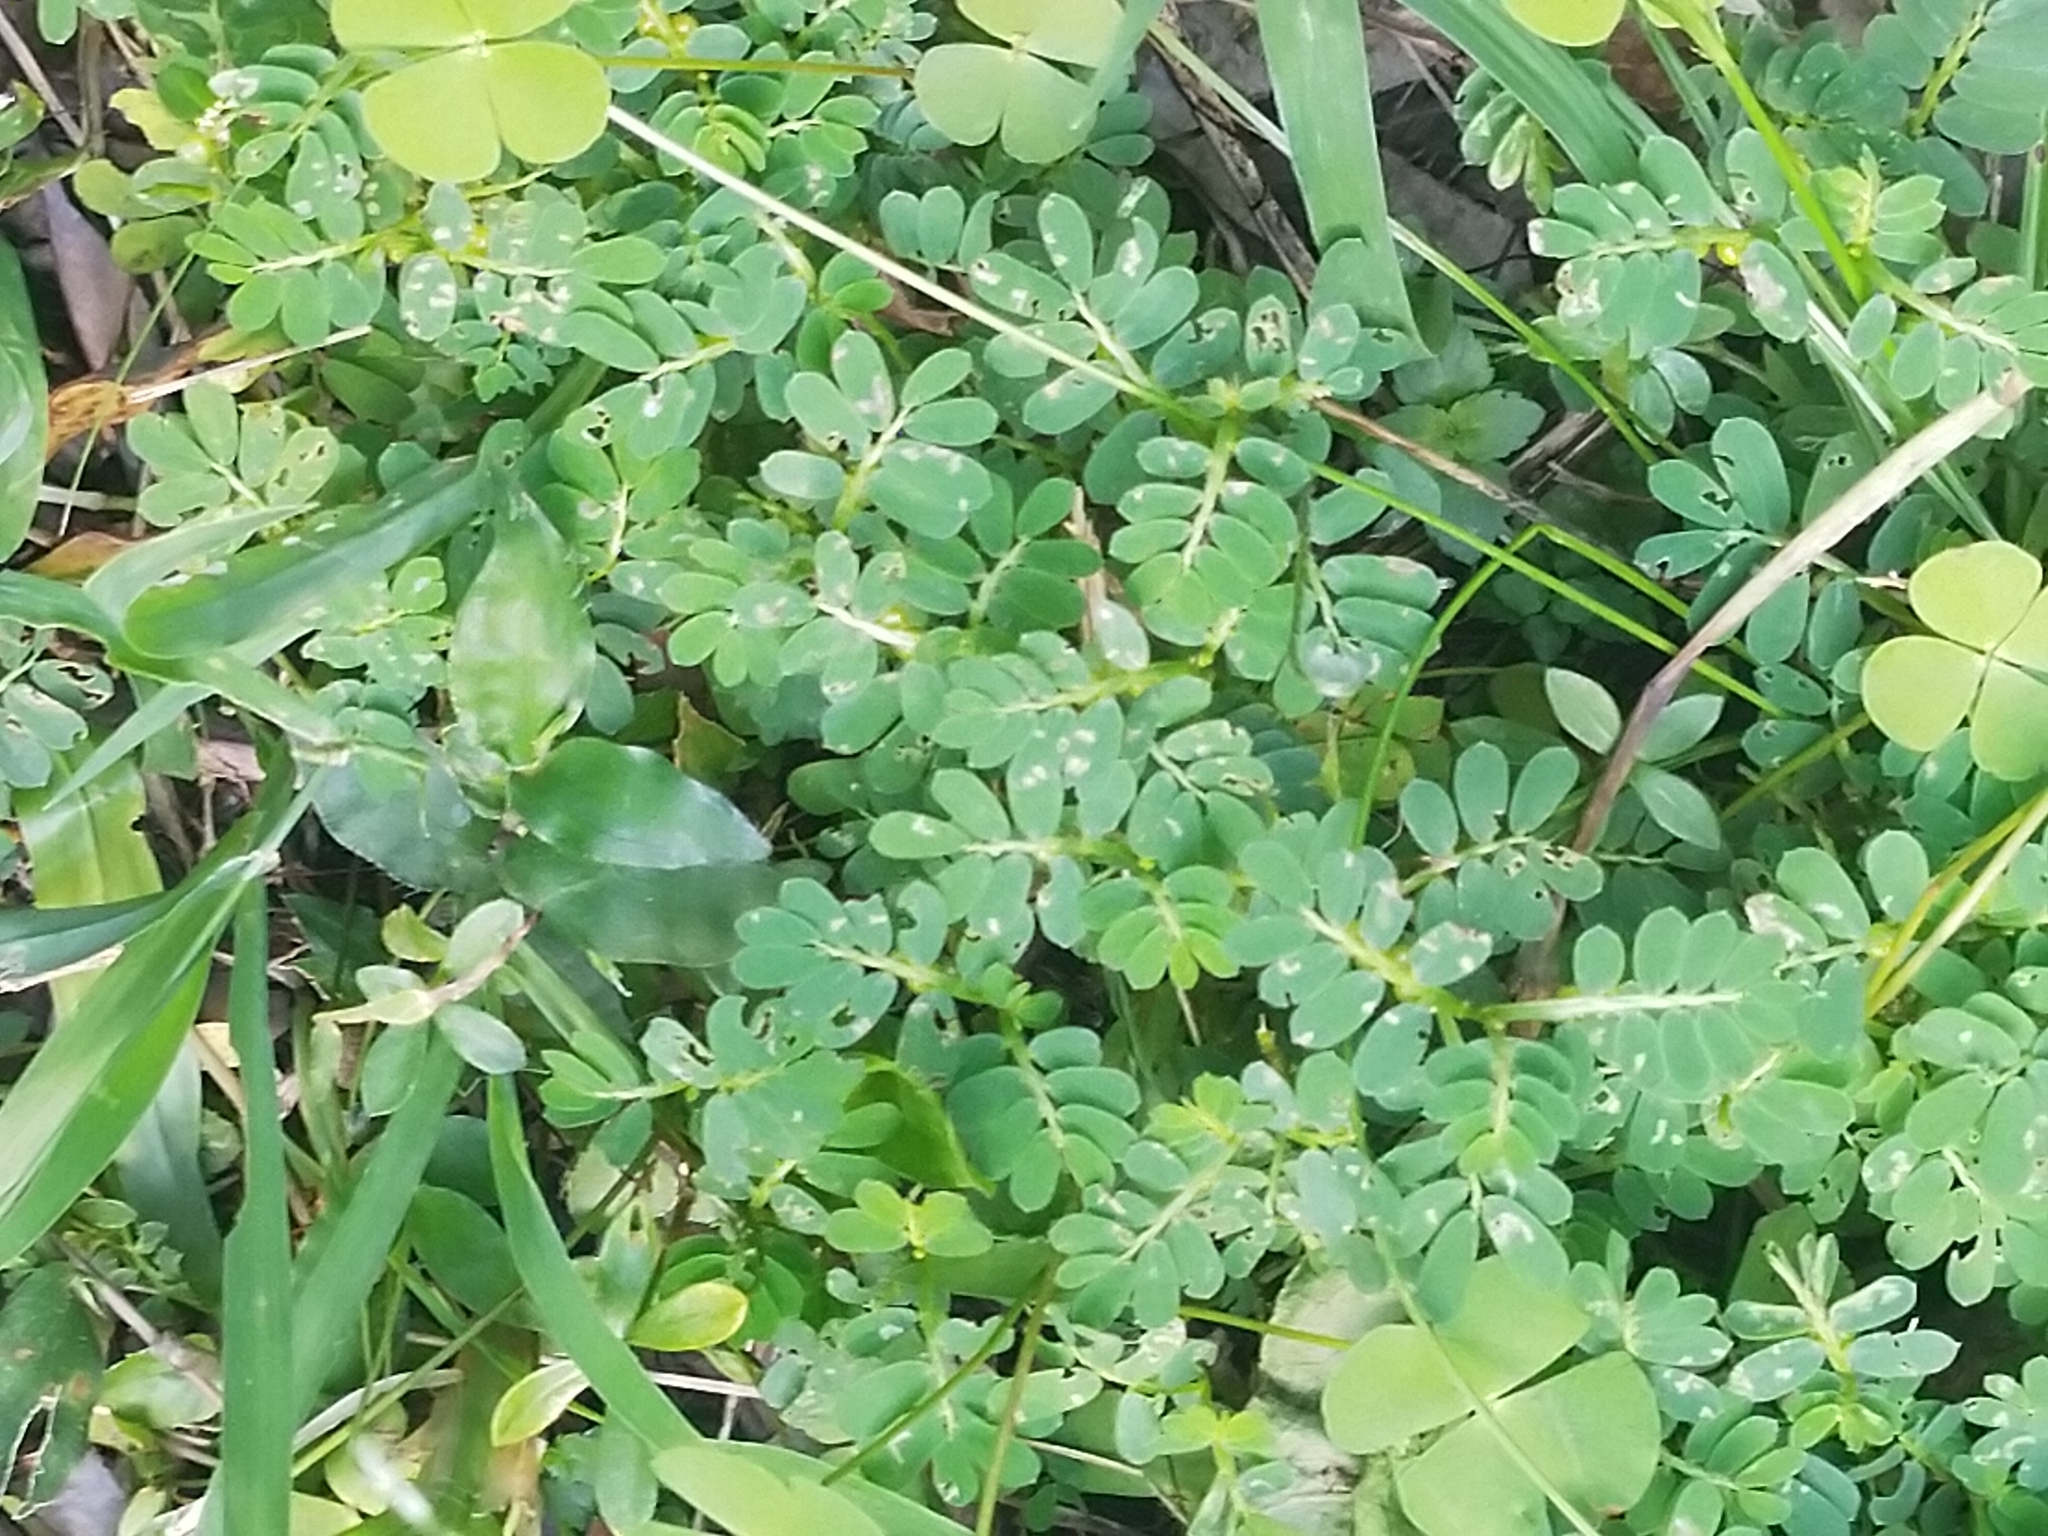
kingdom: Plantae
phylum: Tracheophyta
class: Magnoliopsida
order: Malpighiales
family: Phyllanthaceae
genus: Phyllanthus
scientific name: Phyllanthus urinaria
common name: Chamber bitter
